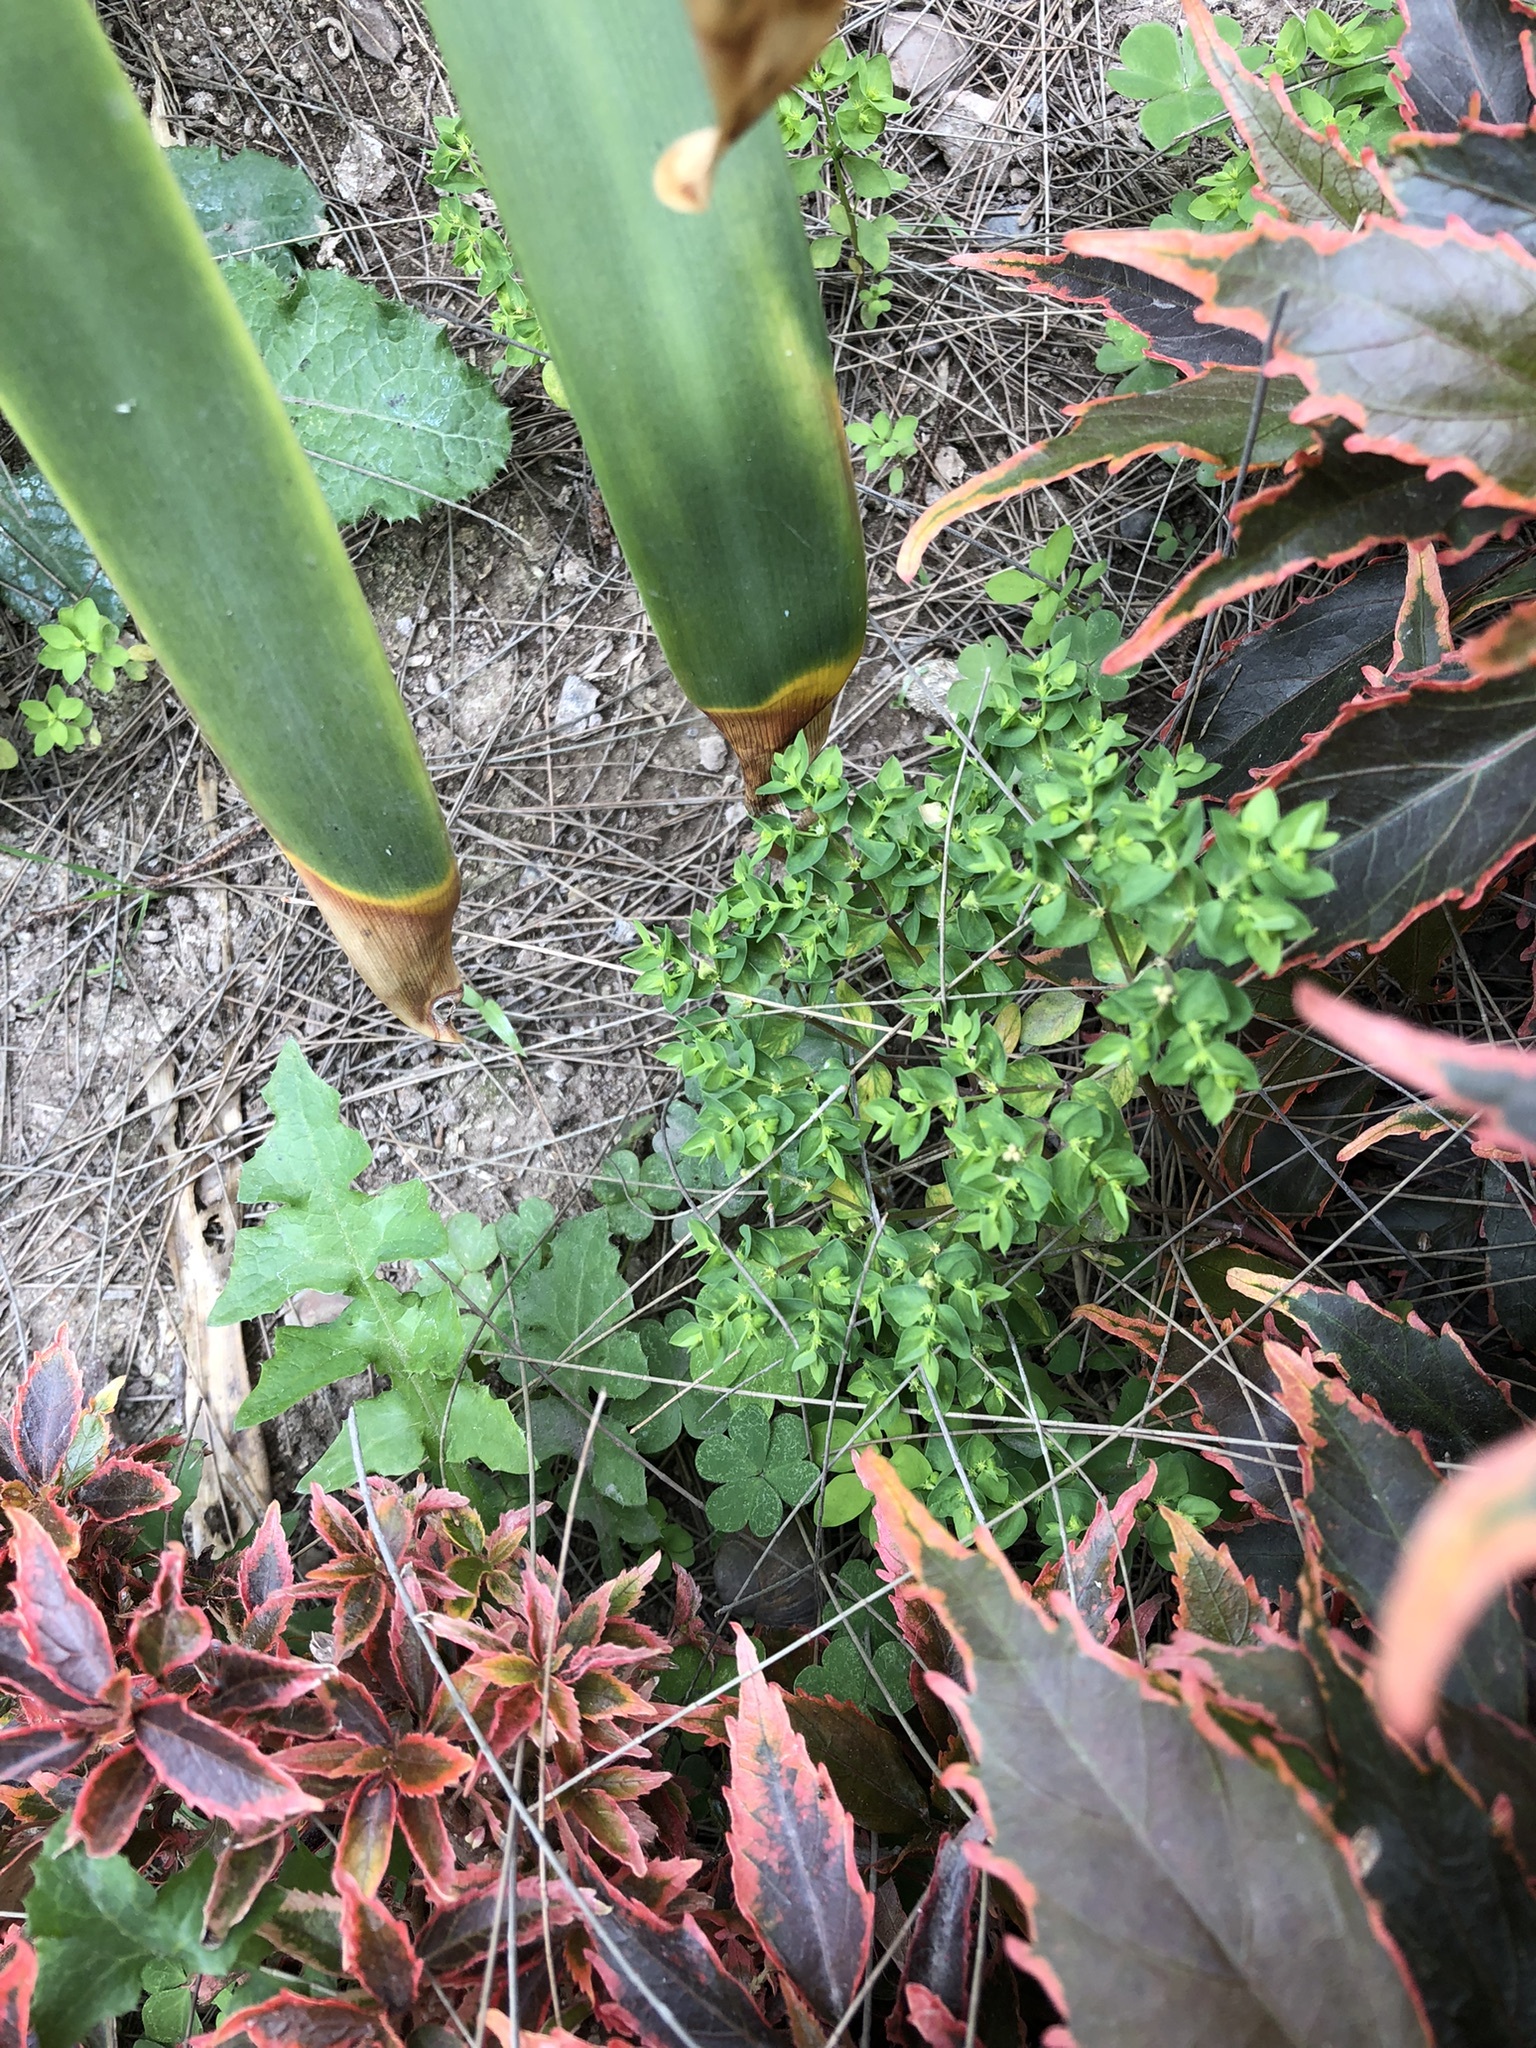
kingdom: Plantae
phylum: Tracheophyta
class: Magnoliopsida
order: Malpighiales
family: Euphorbiaceae
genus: Euphorbia
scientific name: Euphorbia peplus
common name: Petty spurge
